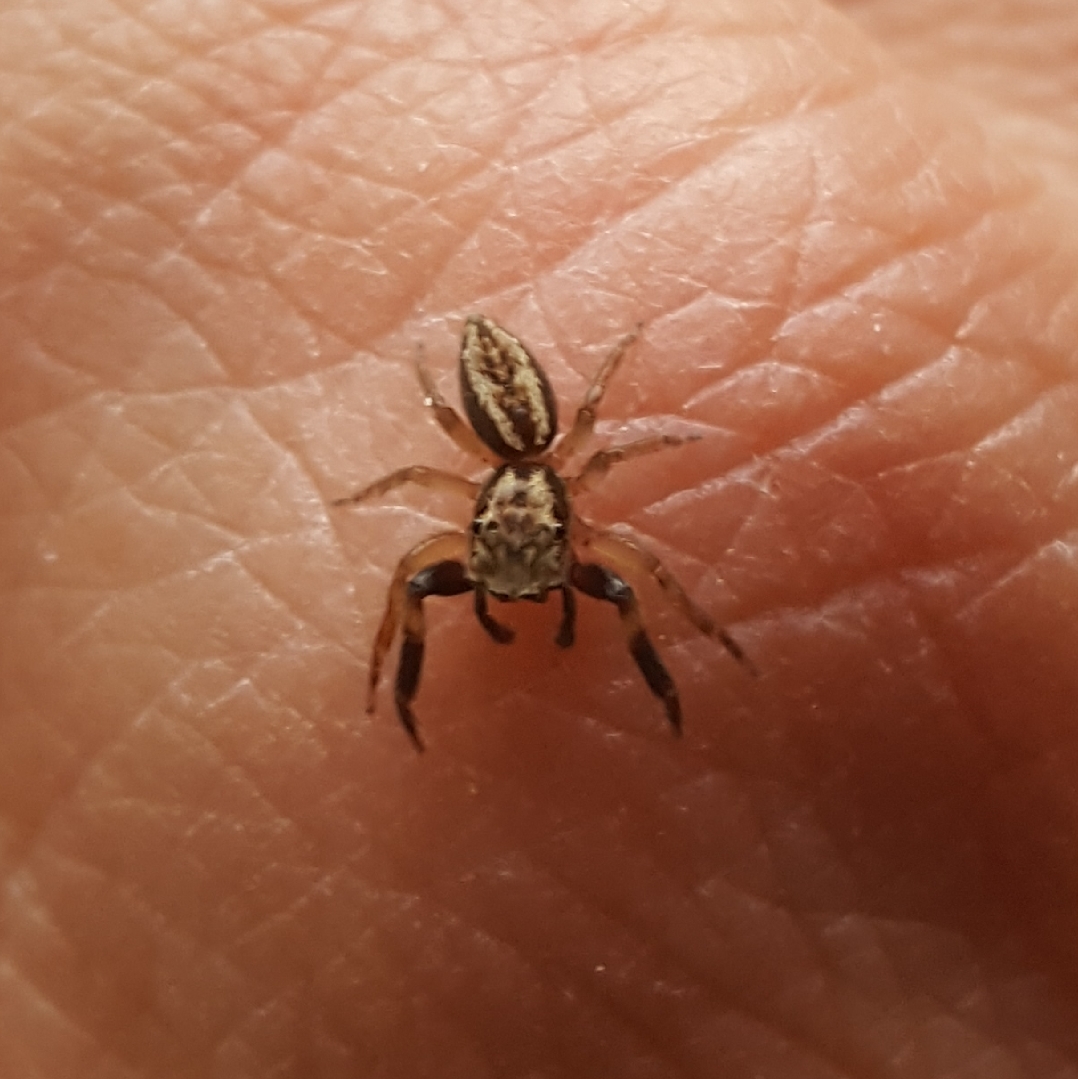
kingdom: Animalia
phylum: Arthropoda
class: Arachnida
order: Araneae
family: Salticidae
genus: Trite
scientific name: Trite auricoma
